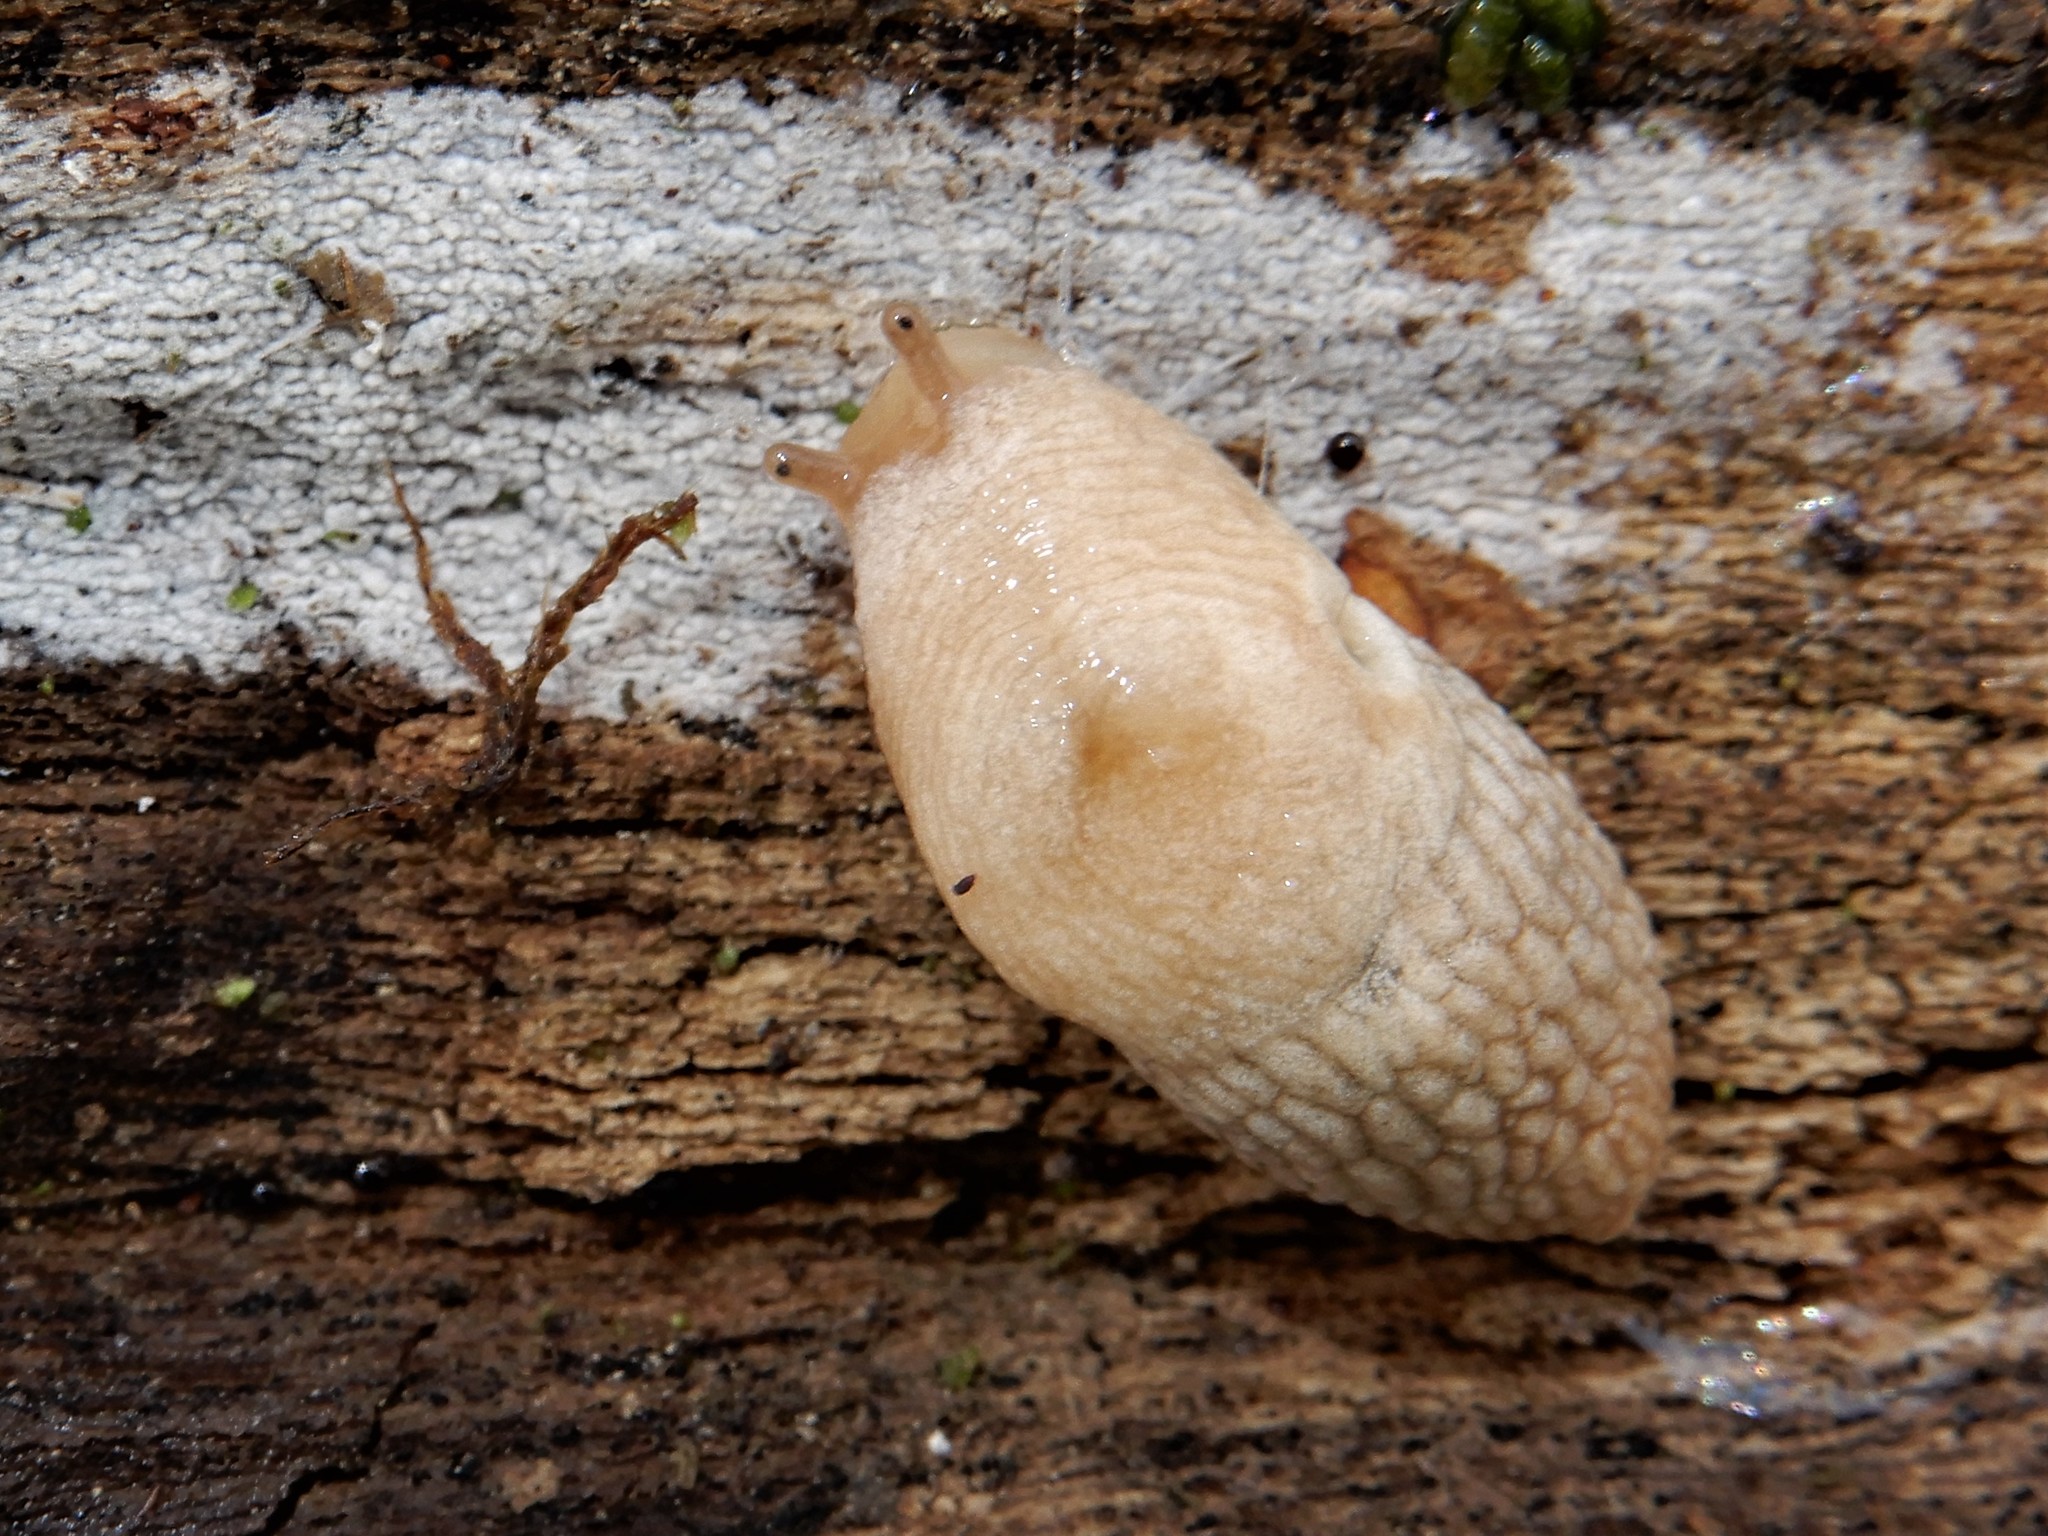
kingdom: Animalia
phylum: Mollusca
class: Gastropoda
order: Stylommatophora
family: Agriolimacidae
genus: Deroceras
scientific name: Deroceras reticulatum
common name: Gray field slug
